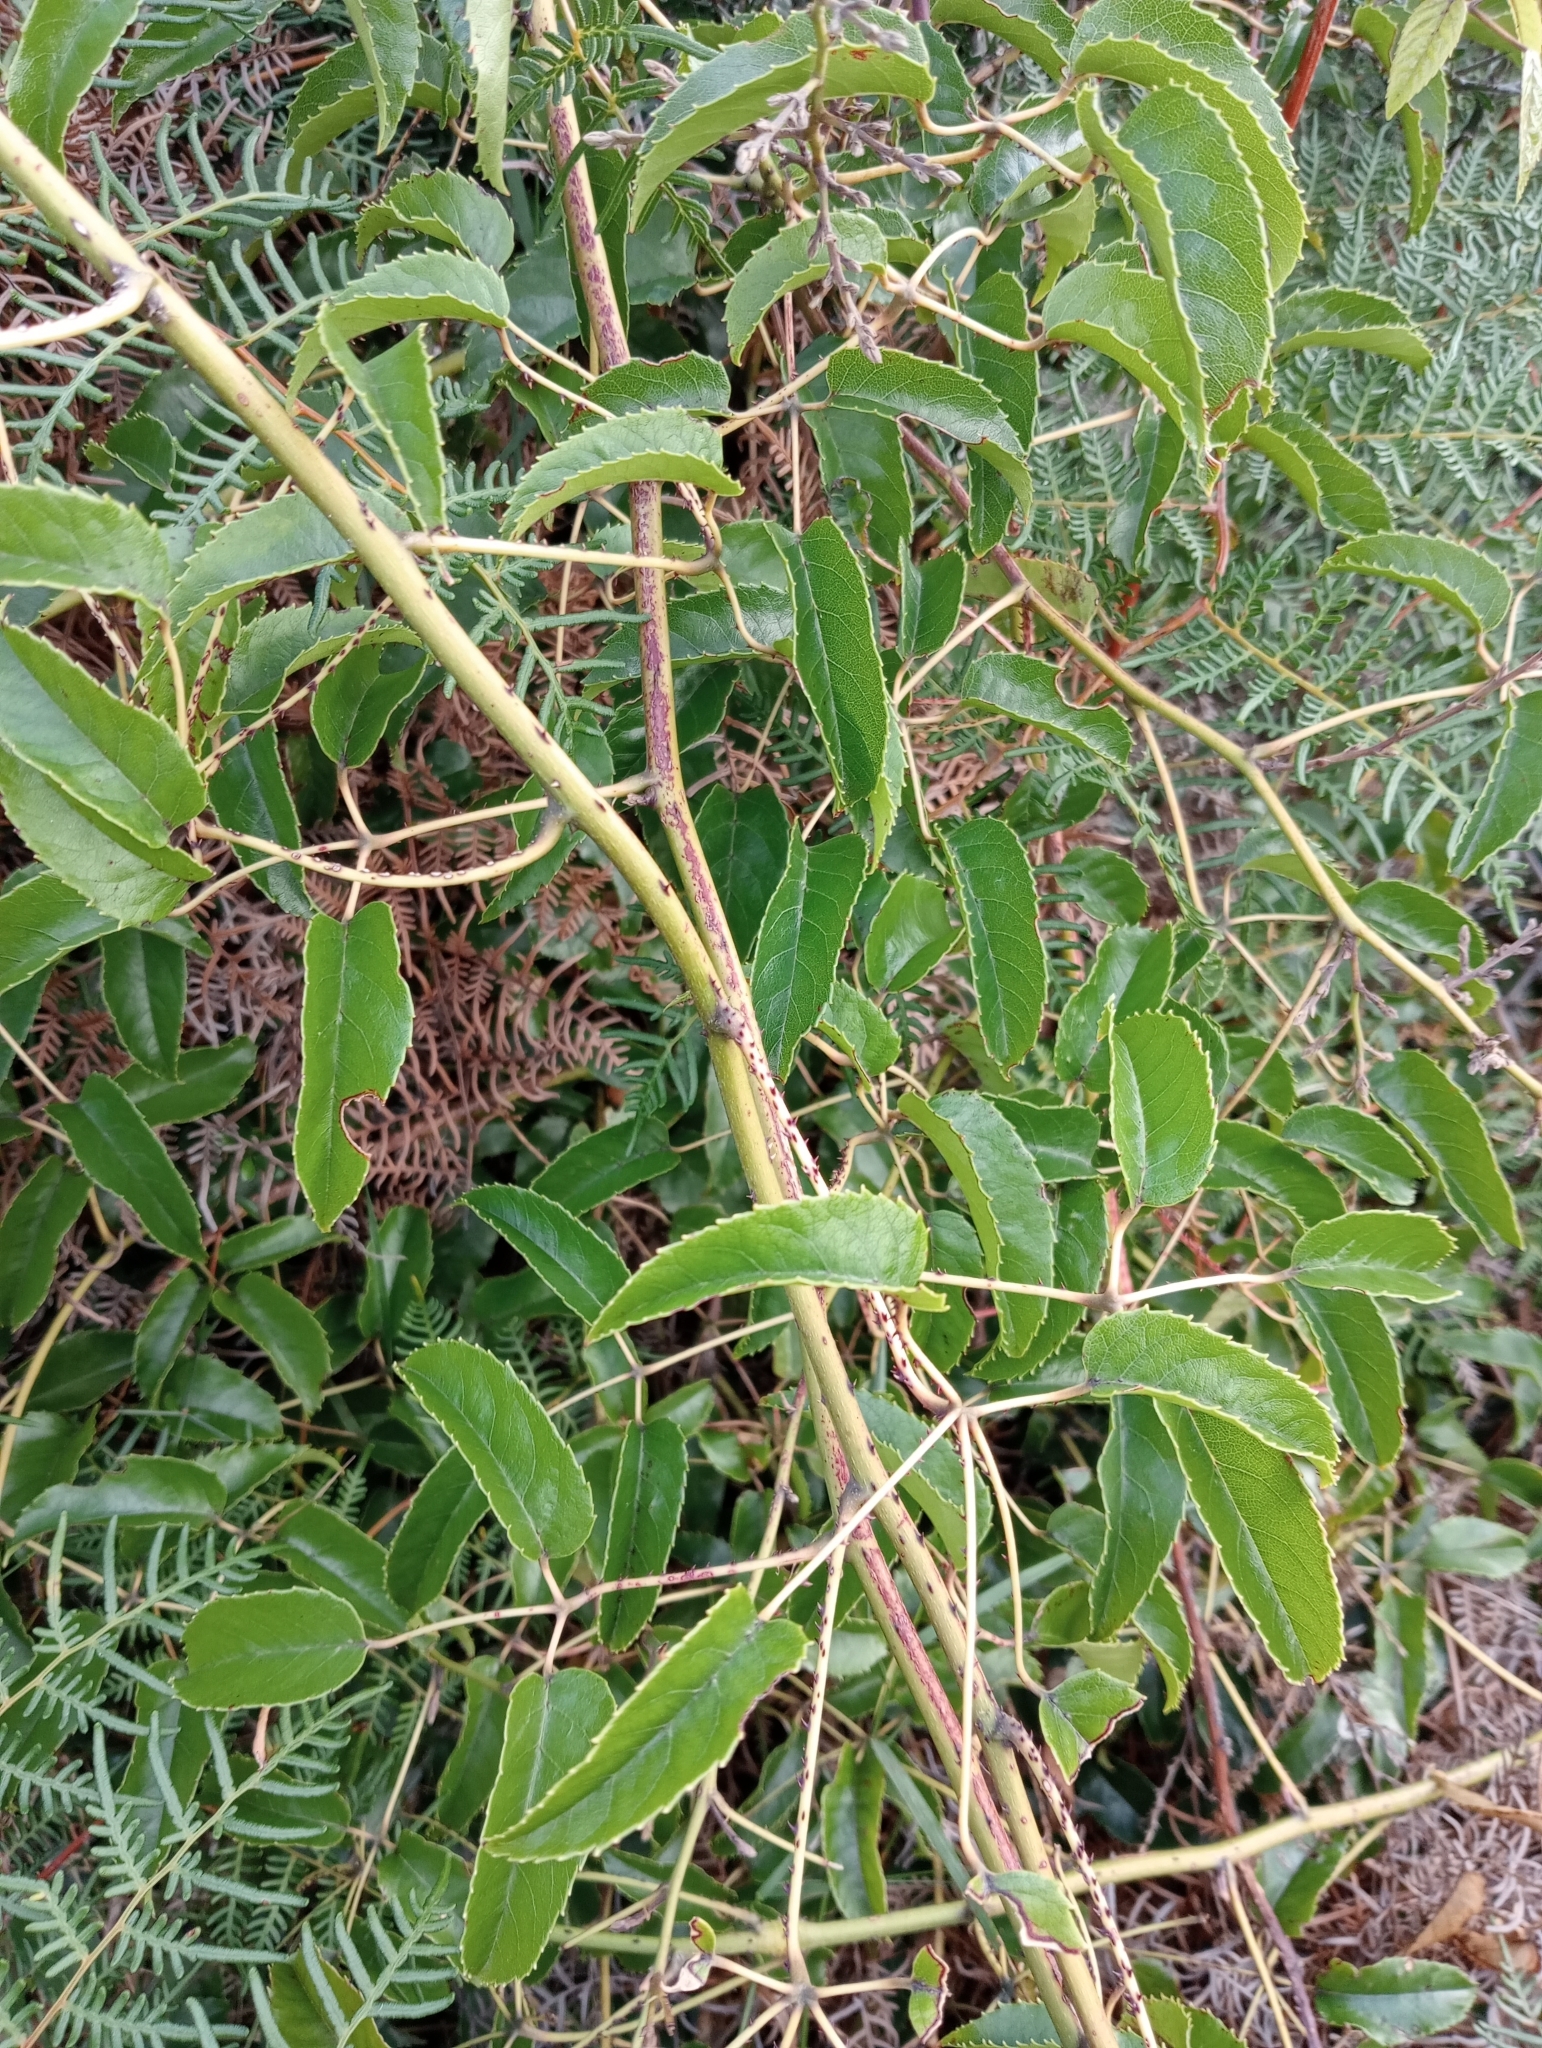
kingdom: Plantae
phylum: Tracheophyta
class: Magnoliopsida
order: Rosales
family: Rosaceae
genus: Rubus
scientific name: Rubus cissoides
